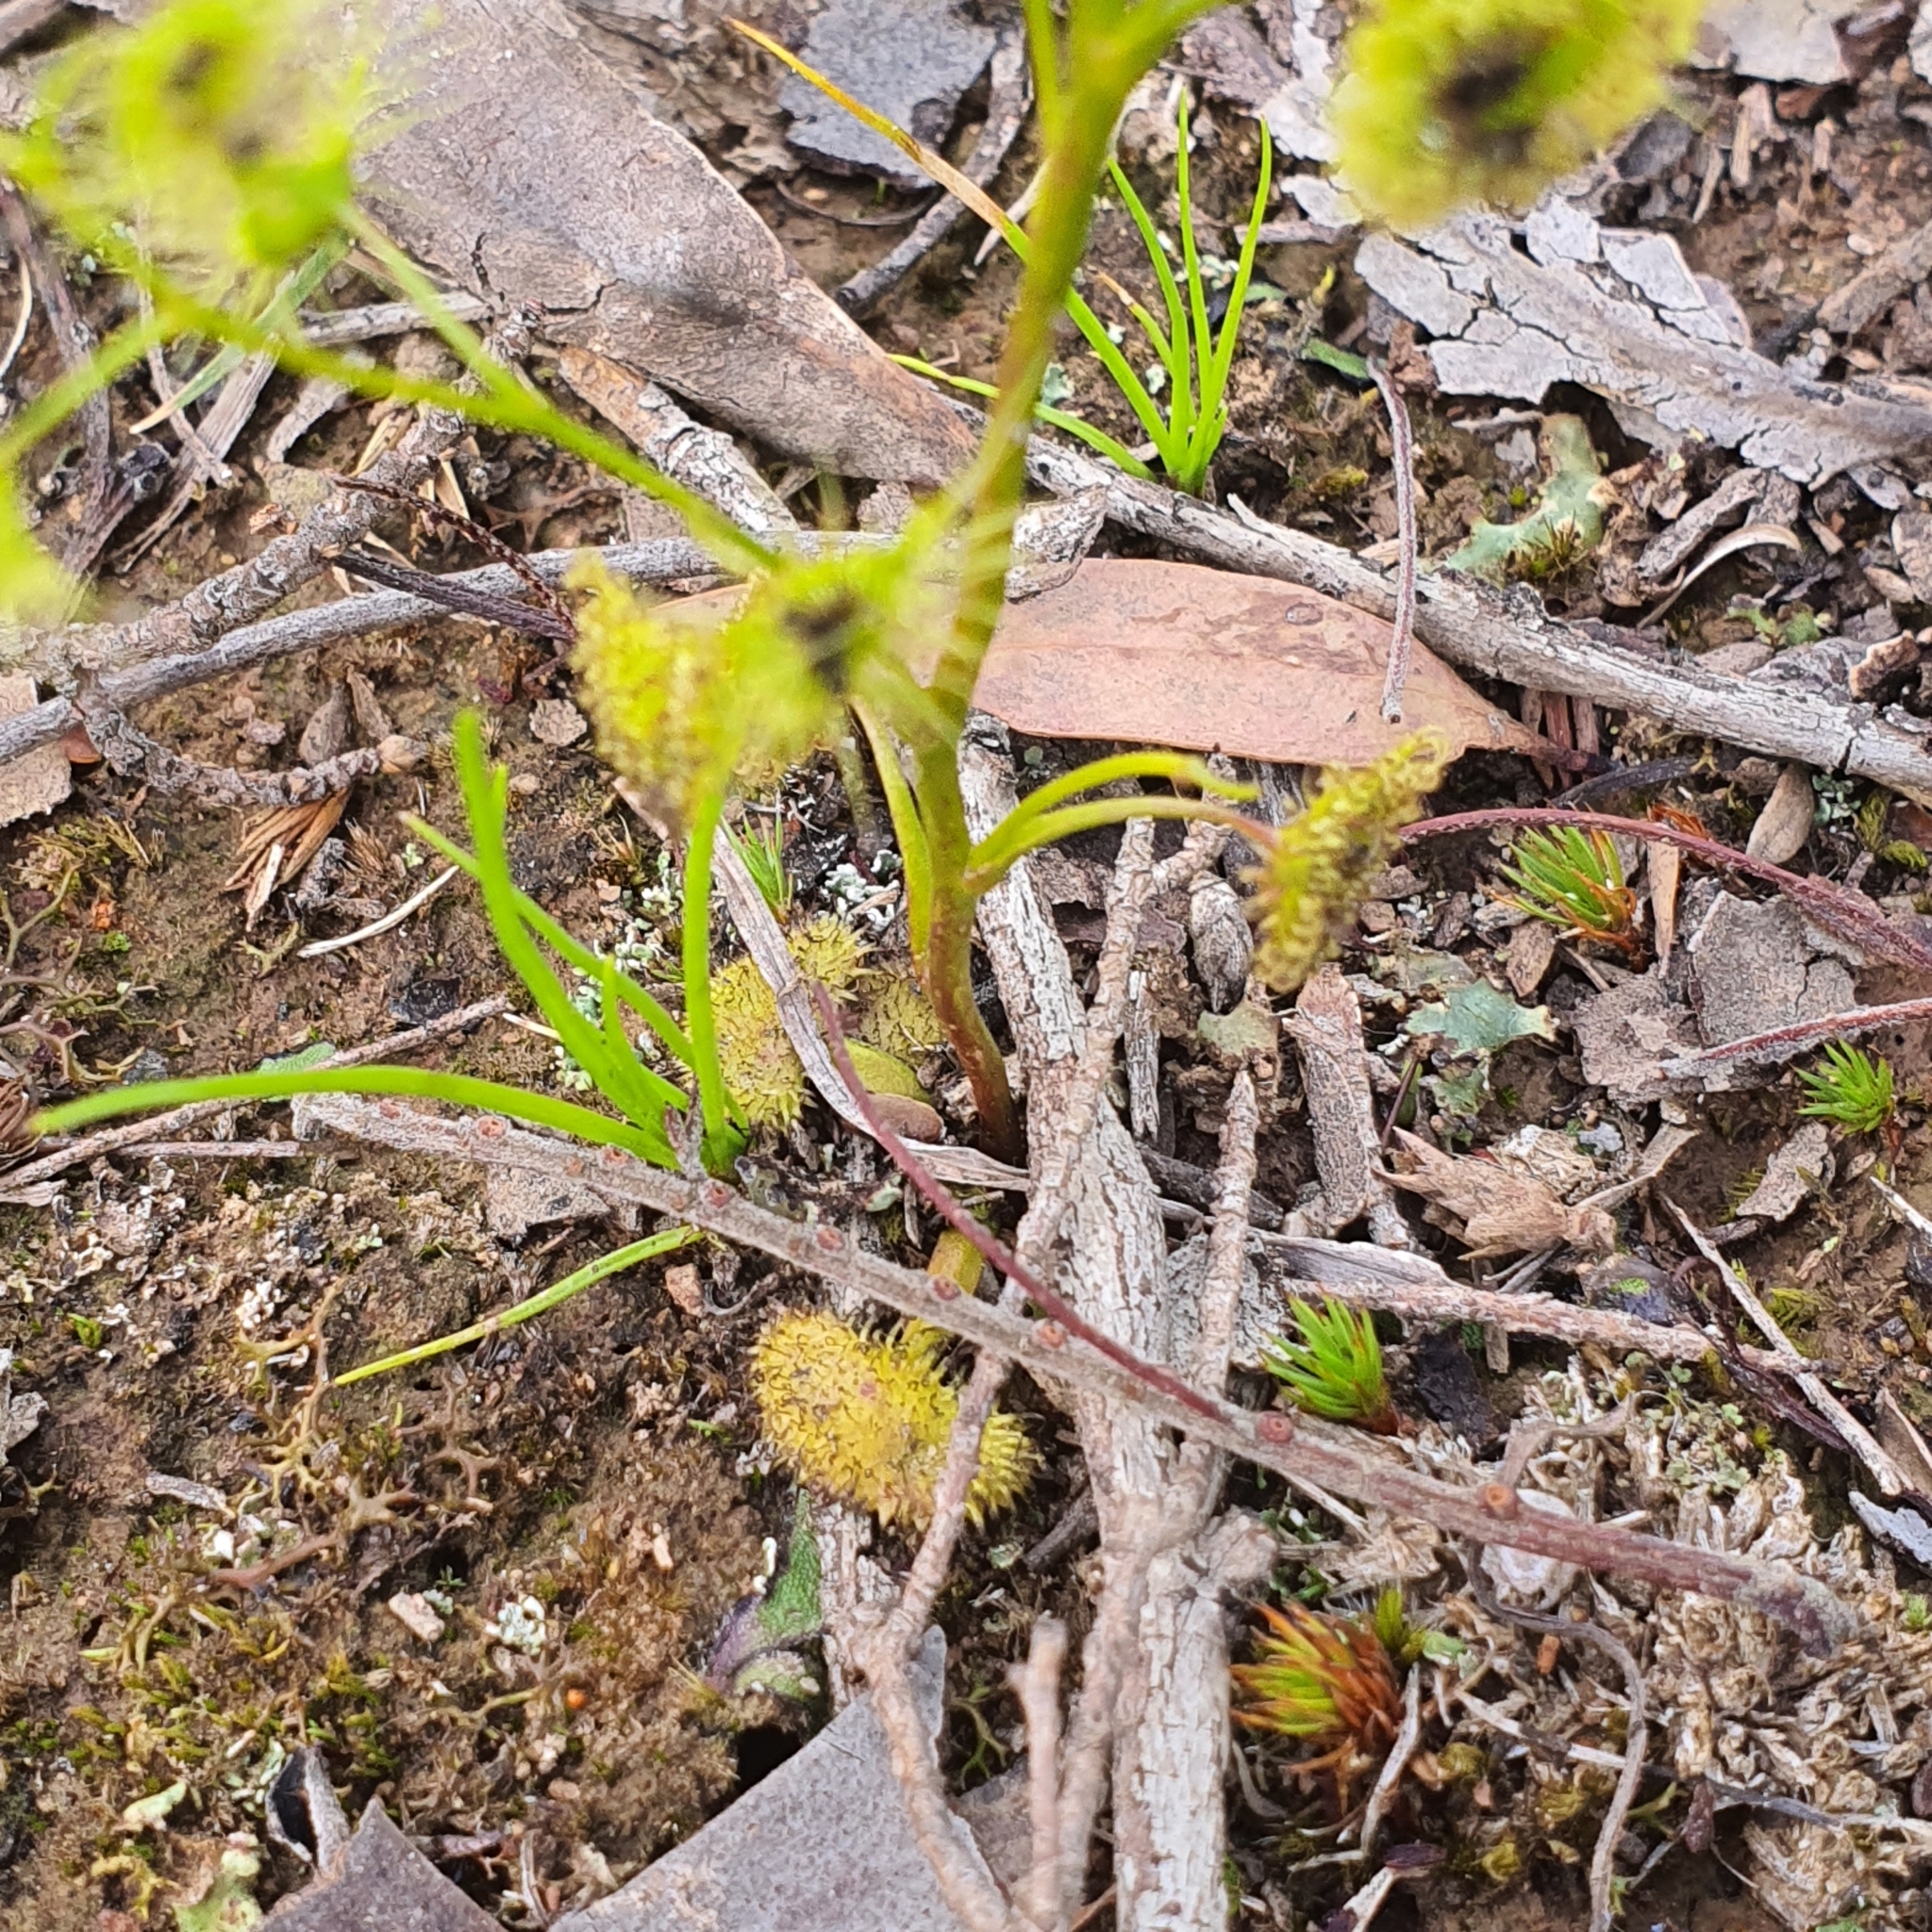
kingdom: Plantae
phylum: Tracheophyta
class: Magnoliopsida
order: Caryophyllales
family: Droseraceae
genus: Drosera
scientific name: Drosera gunniana
